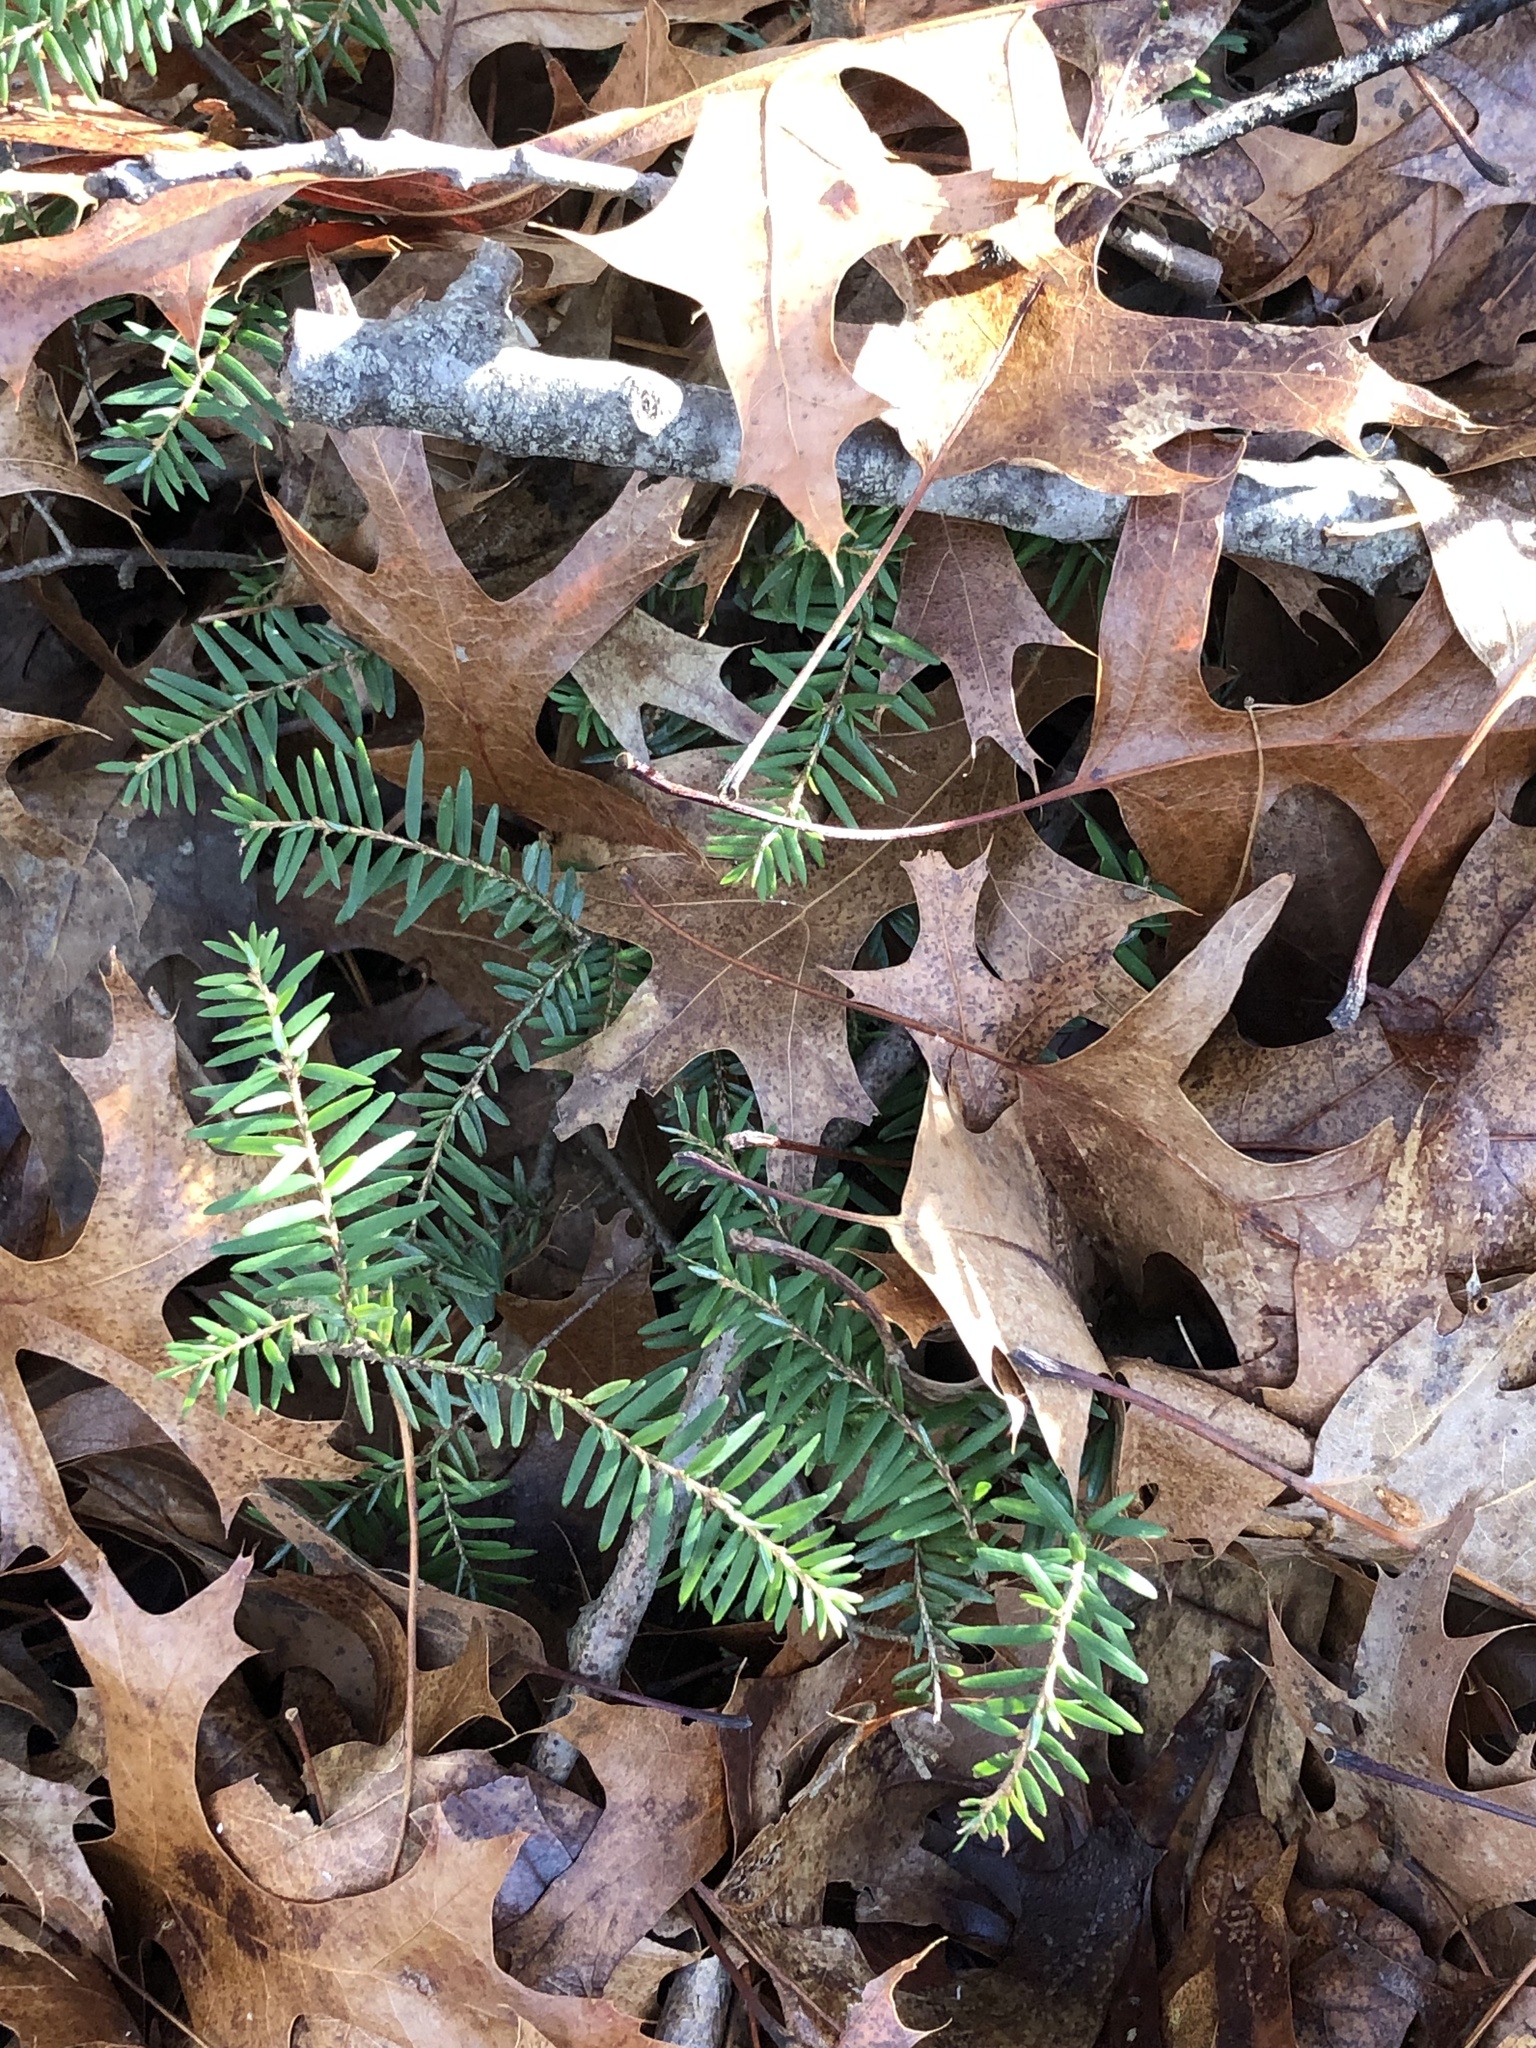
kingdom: Plantae
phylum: Tracheophyta
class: Pinopsida
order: Pinales
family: Pinaceae
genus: Tsuga
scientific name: Tsuga canadensis
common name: Eastern hemlock
